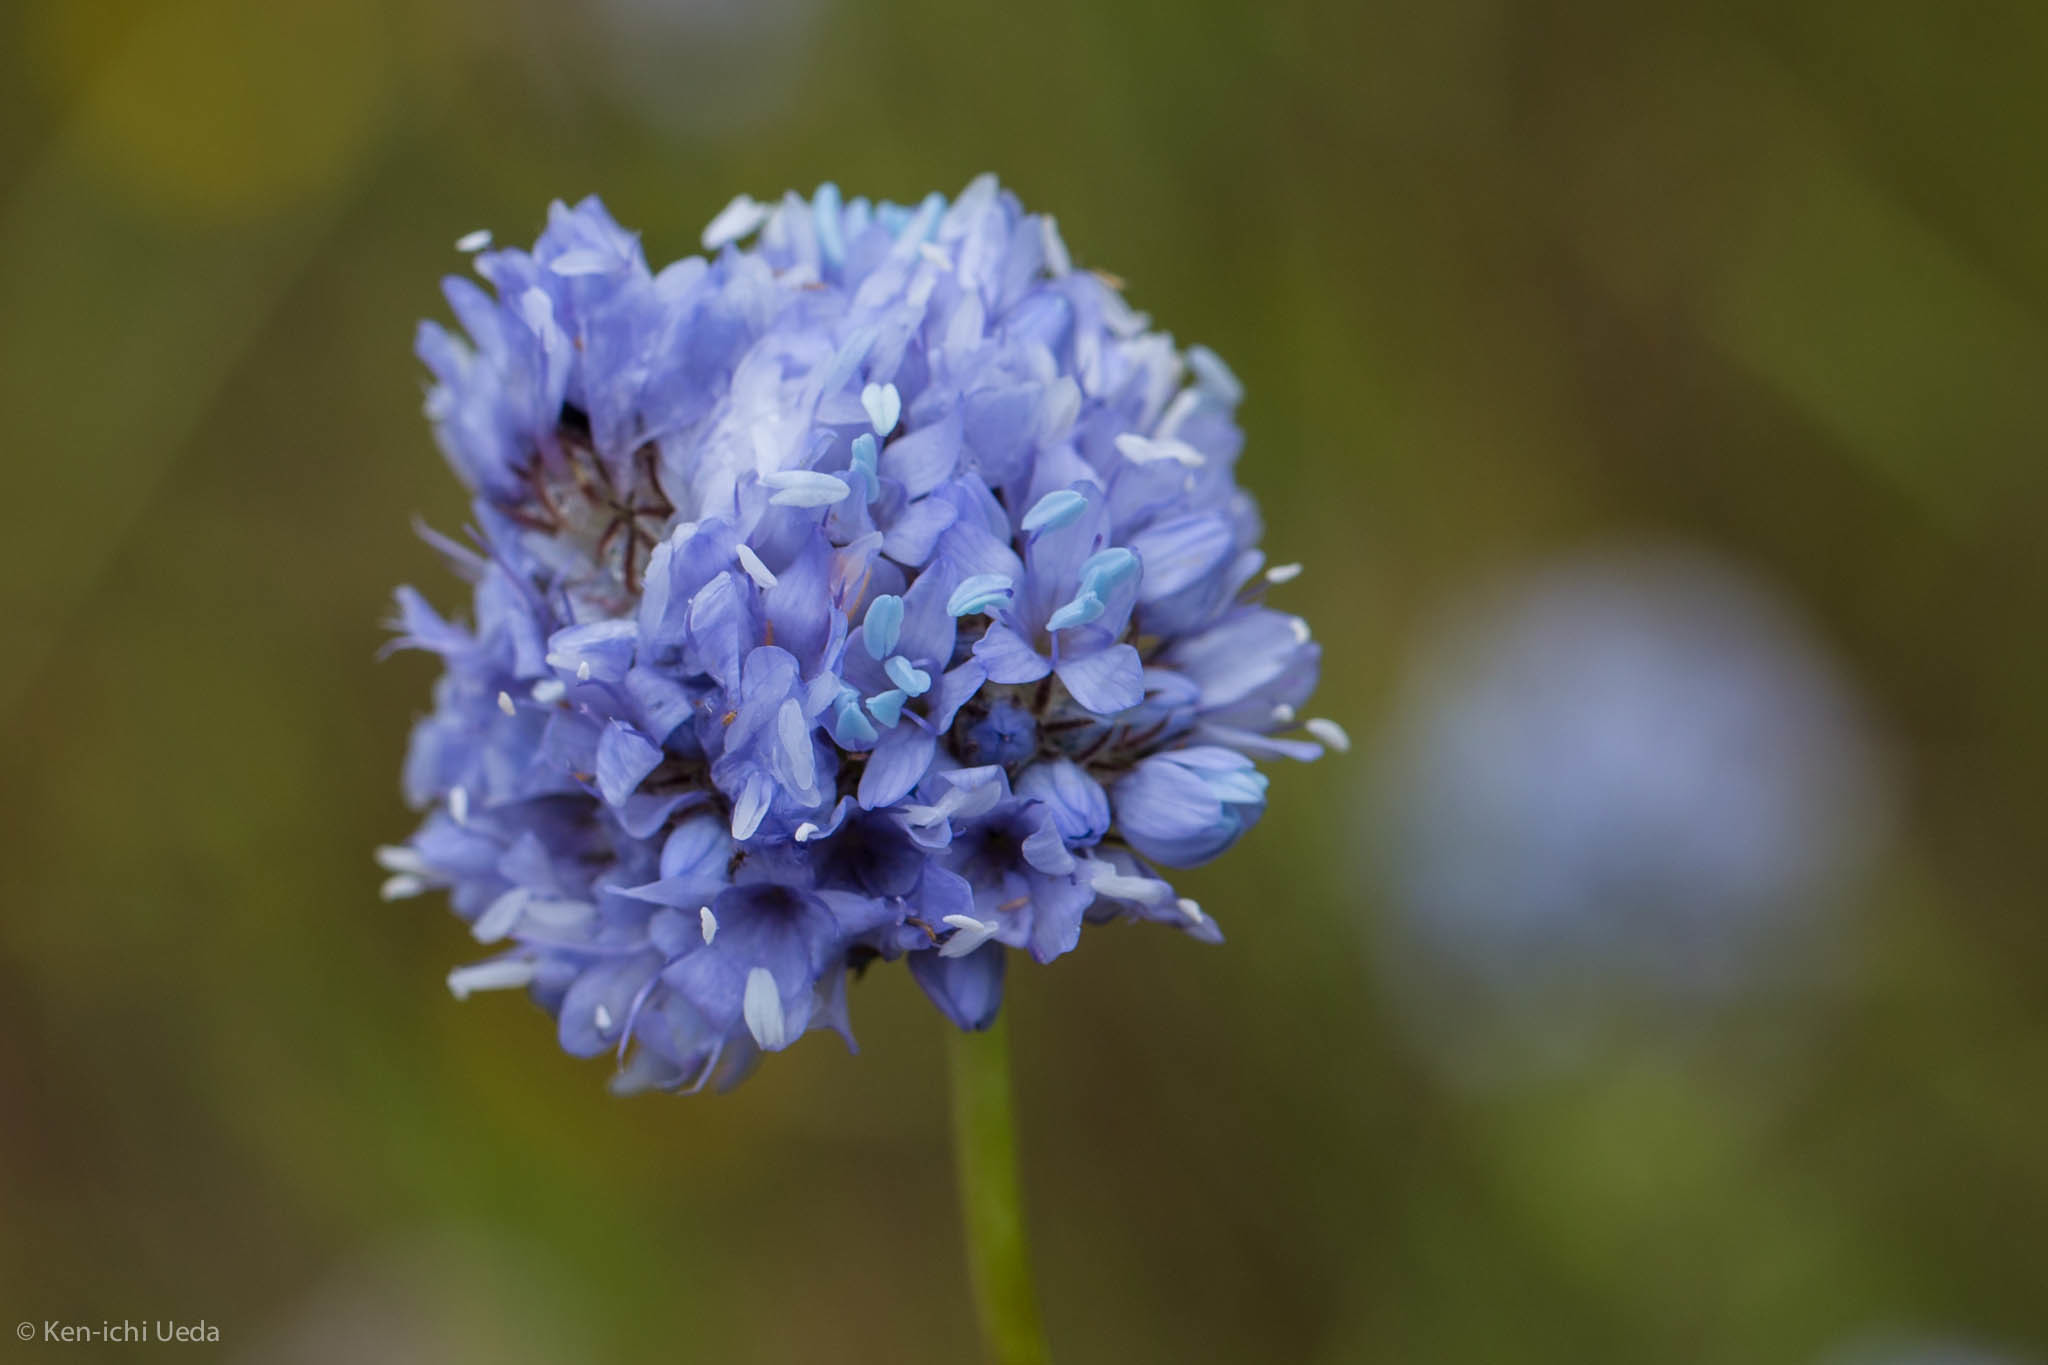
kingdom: Plantae
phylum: Tracheophyta
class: Magnoliopsida
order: Ericales
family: Polemoniaceae
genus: Gilia
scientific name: Gilia capitata
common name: Bluehead gilia
